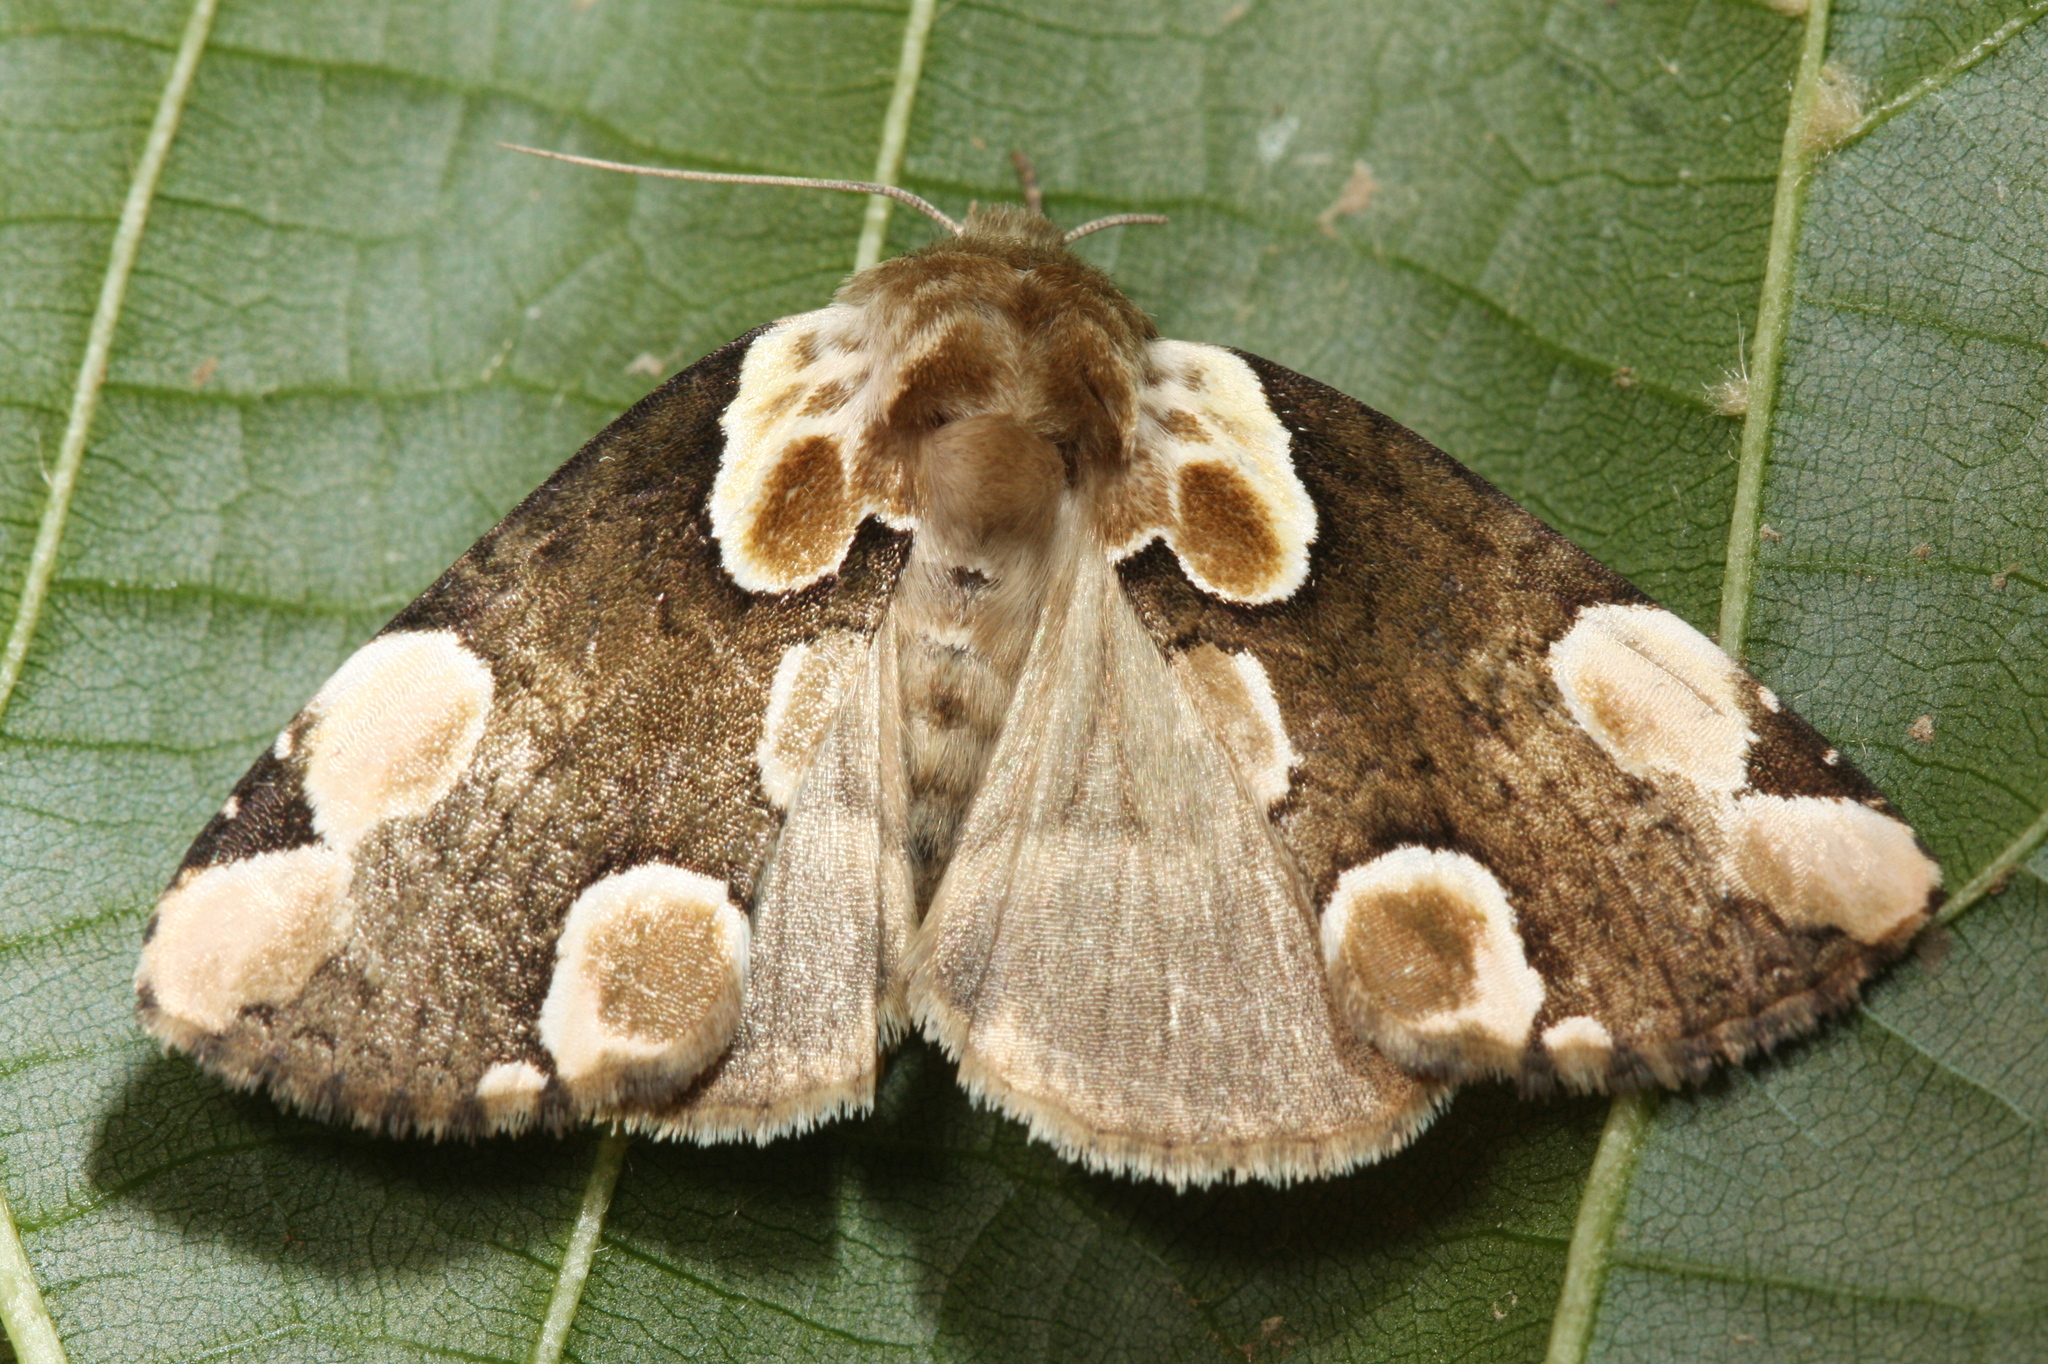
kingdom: Animalia
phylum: Arthropoda
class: Insecta
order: Lepidoptera
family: Drepanidae
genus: Thyatira
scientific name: Thyatira batis
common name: Peach blossom
